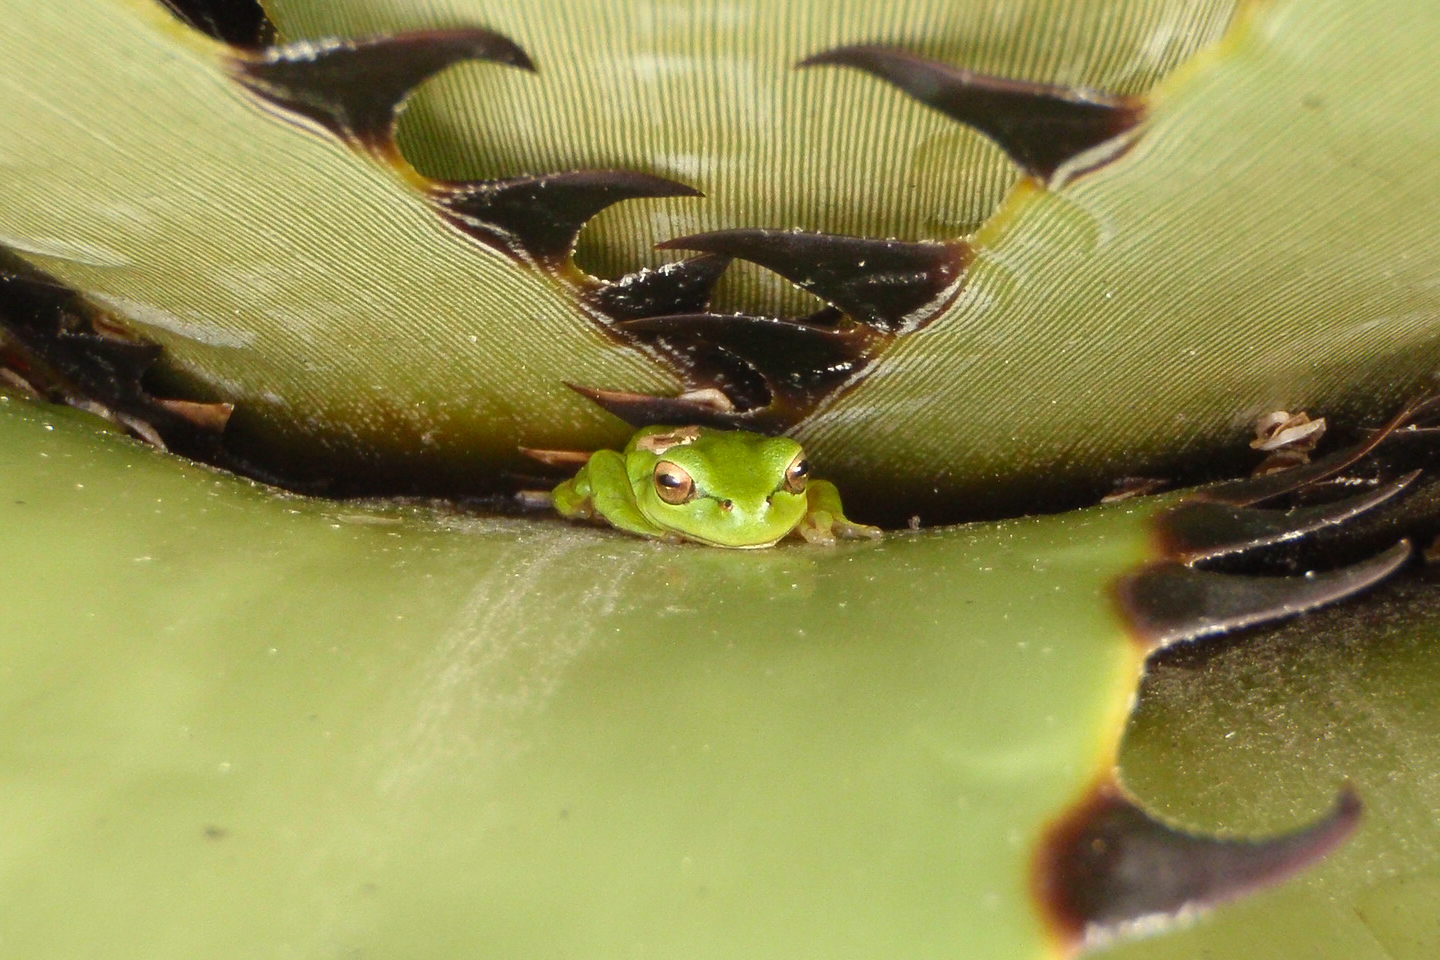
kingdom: Animalia
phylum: Chordata
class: Amphibia
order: Anura
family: Hylidae
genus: Dendropsophus
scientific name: Dendropsophus molitor
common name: Green dotted treefrog
